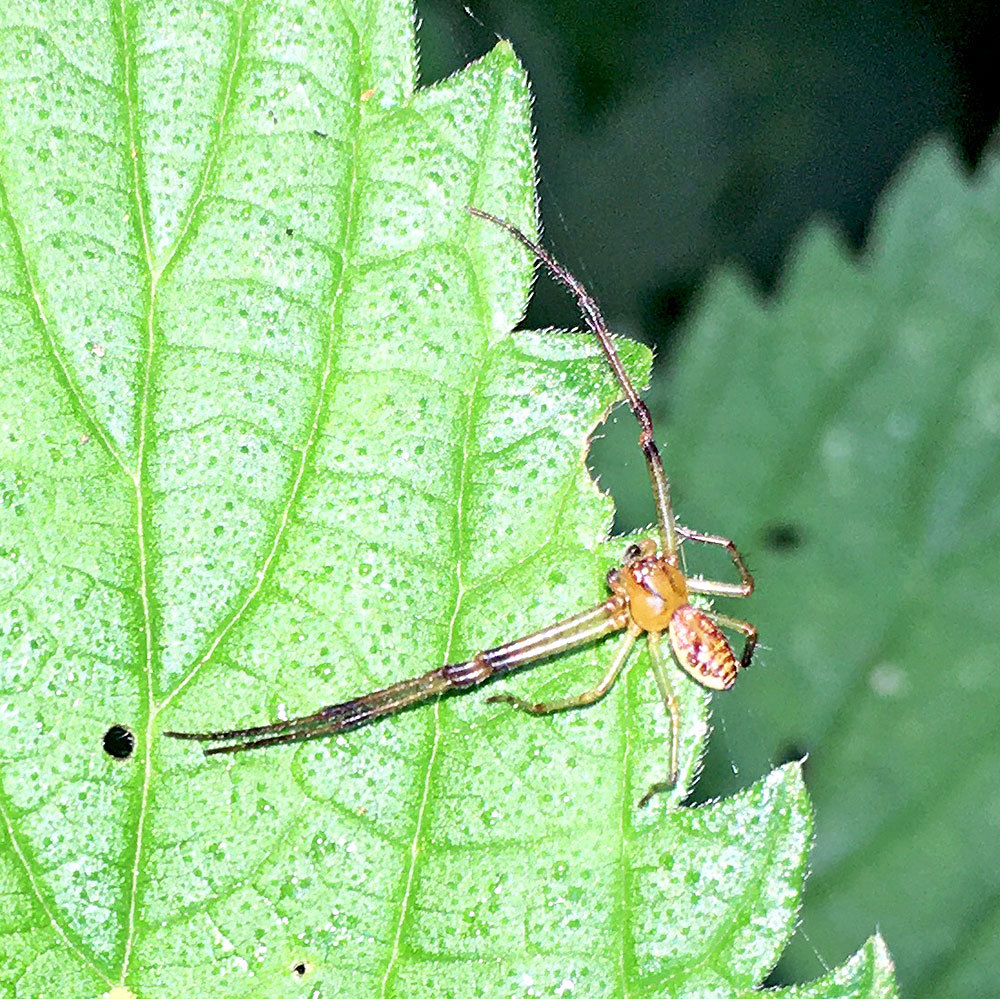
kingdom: Animalia
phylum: Arthropoda
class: Arachnida
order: Araneae
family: Thomisidae
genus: Diaea
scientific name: Diaea dorsata
